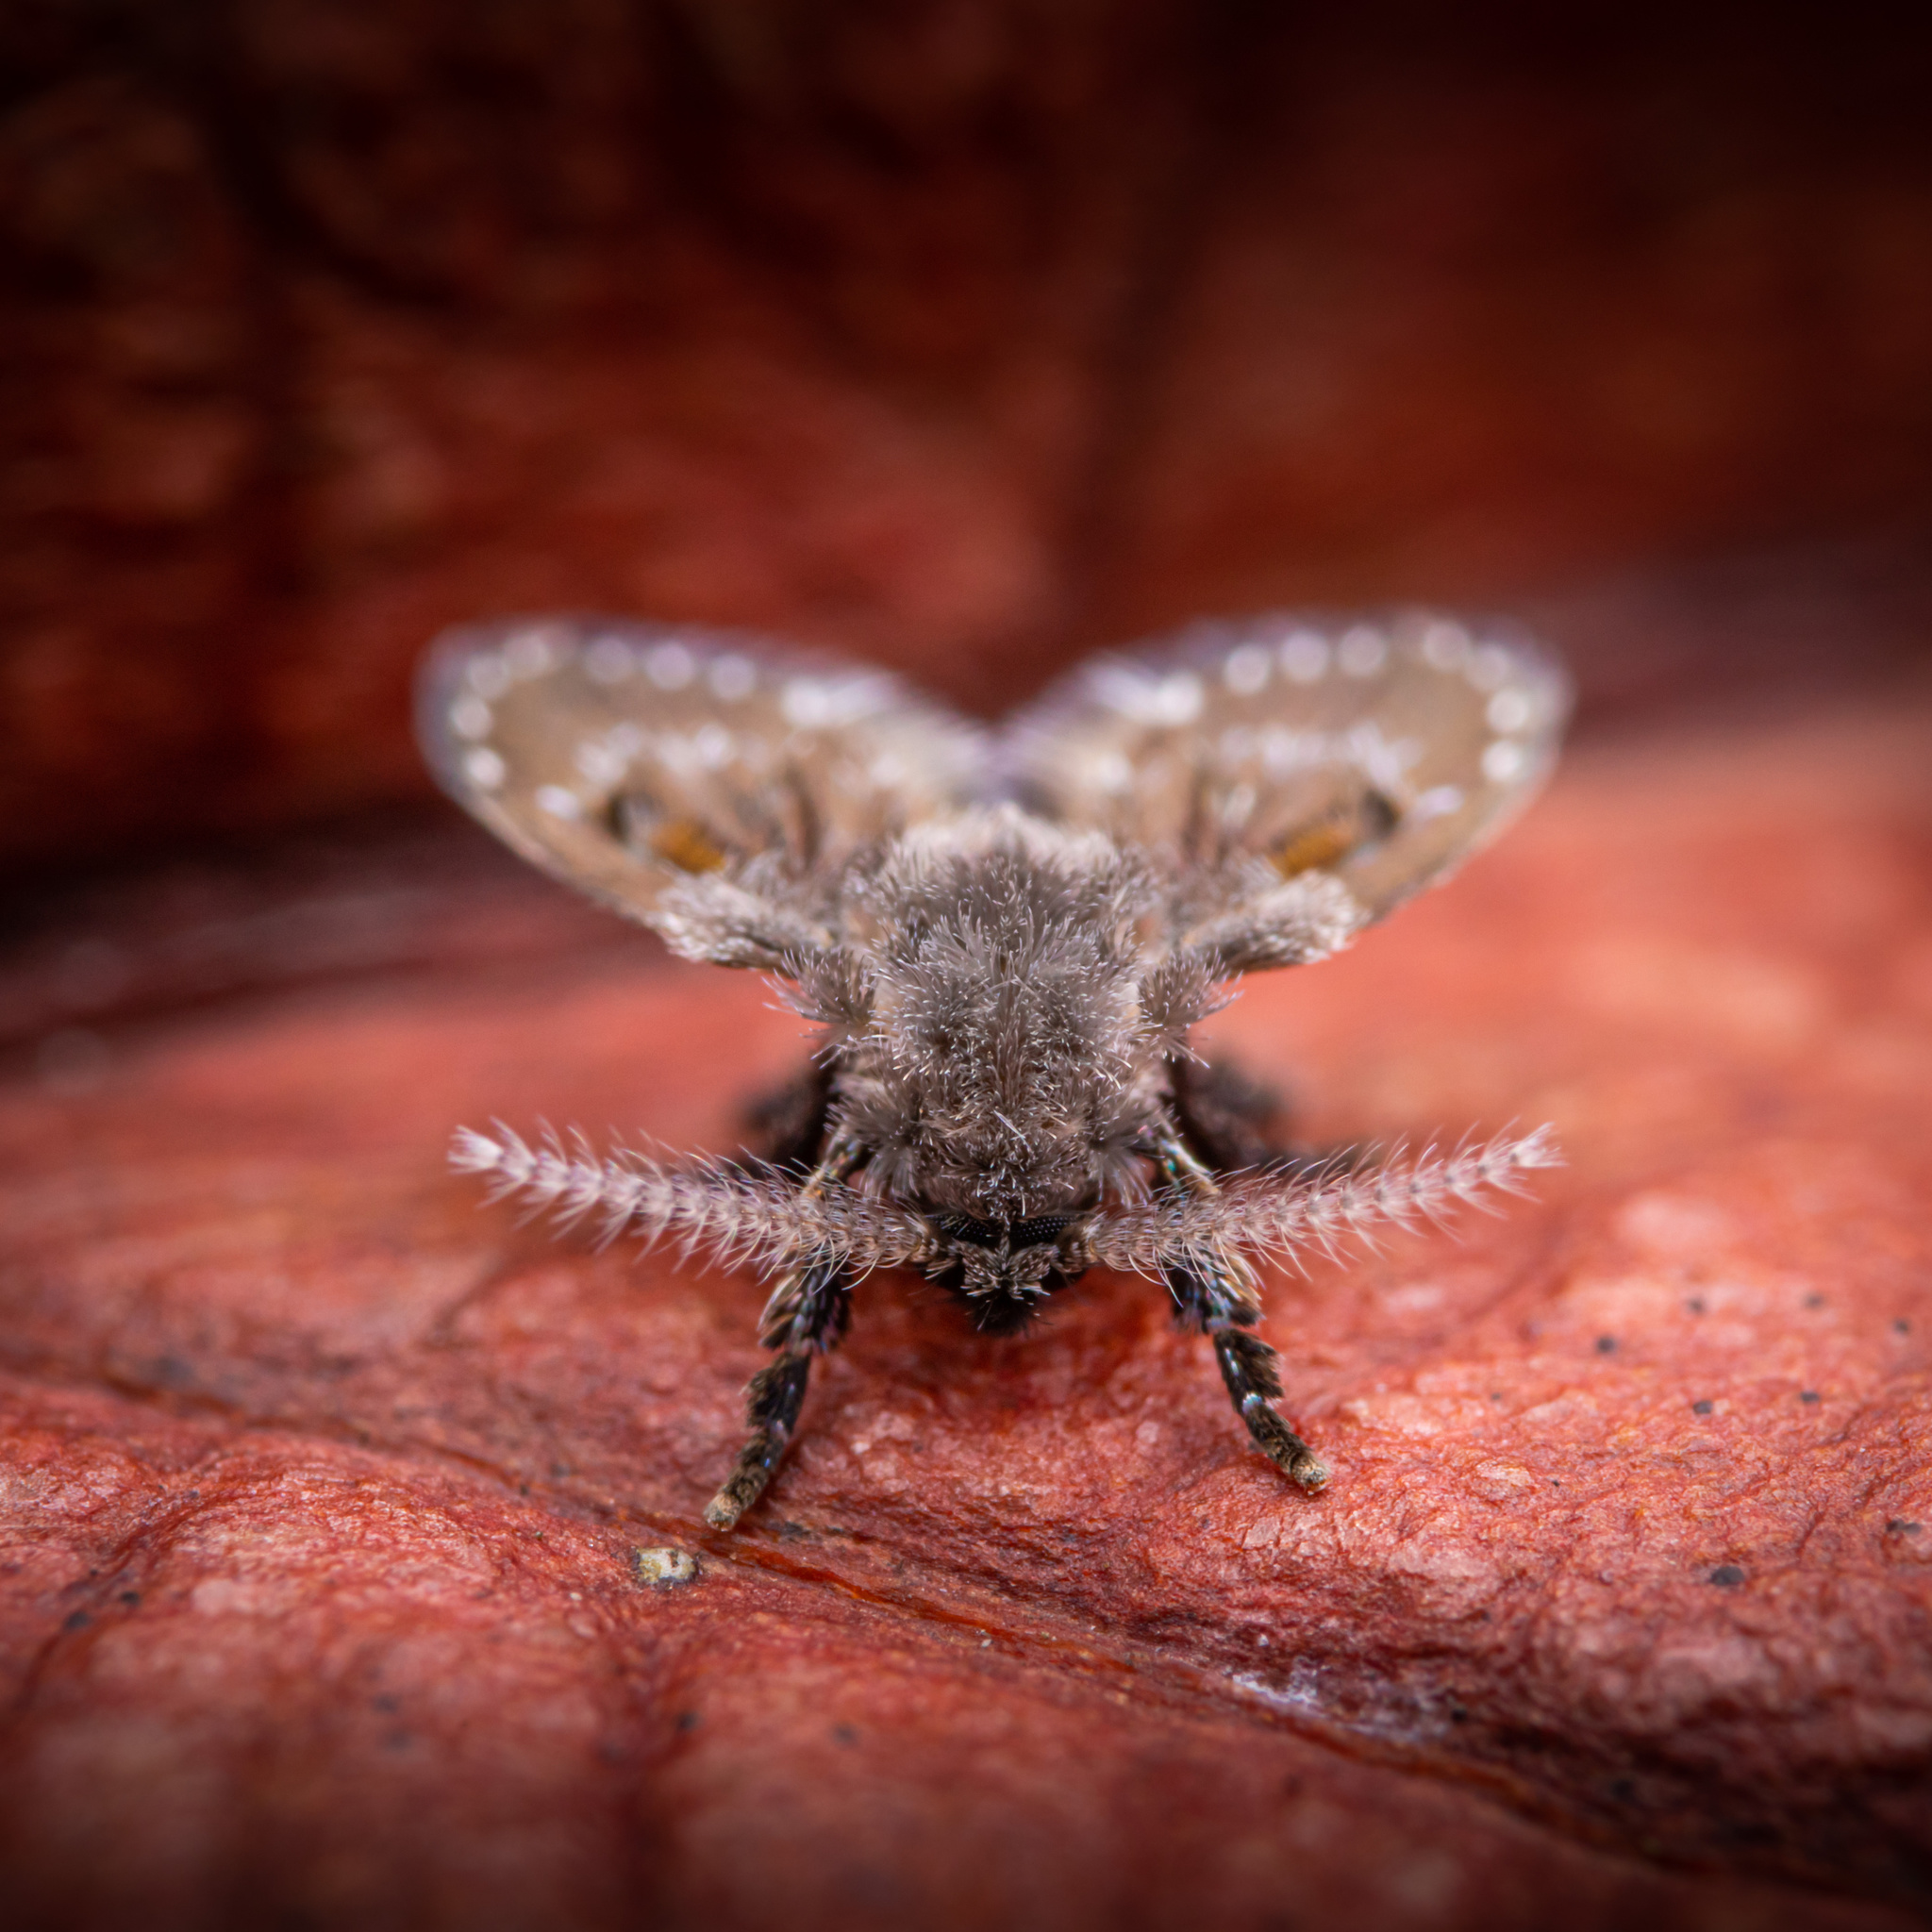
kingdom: Animalia
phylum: Arthropoda
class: Insecta
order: Diptera
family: Psychodidae
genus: Clogmia
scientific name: Clogmia albipunctatus
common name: White-spotted moth fly
